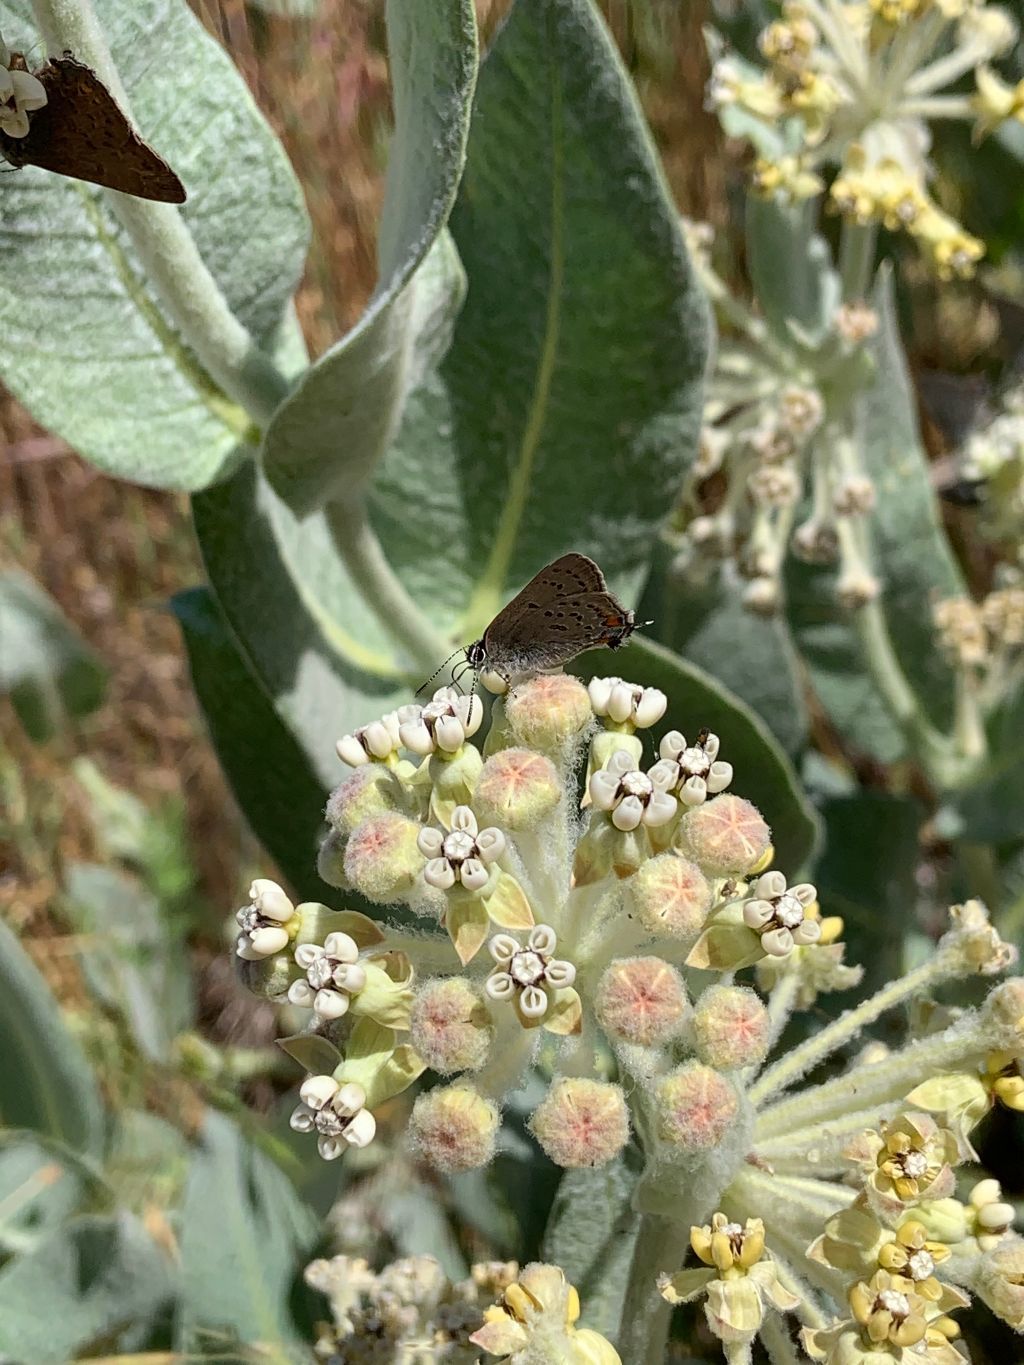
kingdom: Plantae
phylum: Tracheophyta
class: Magnoliopsida
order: Gentianales
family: Apocynaceae
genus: Asclepias
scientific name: Asclepias vestita
